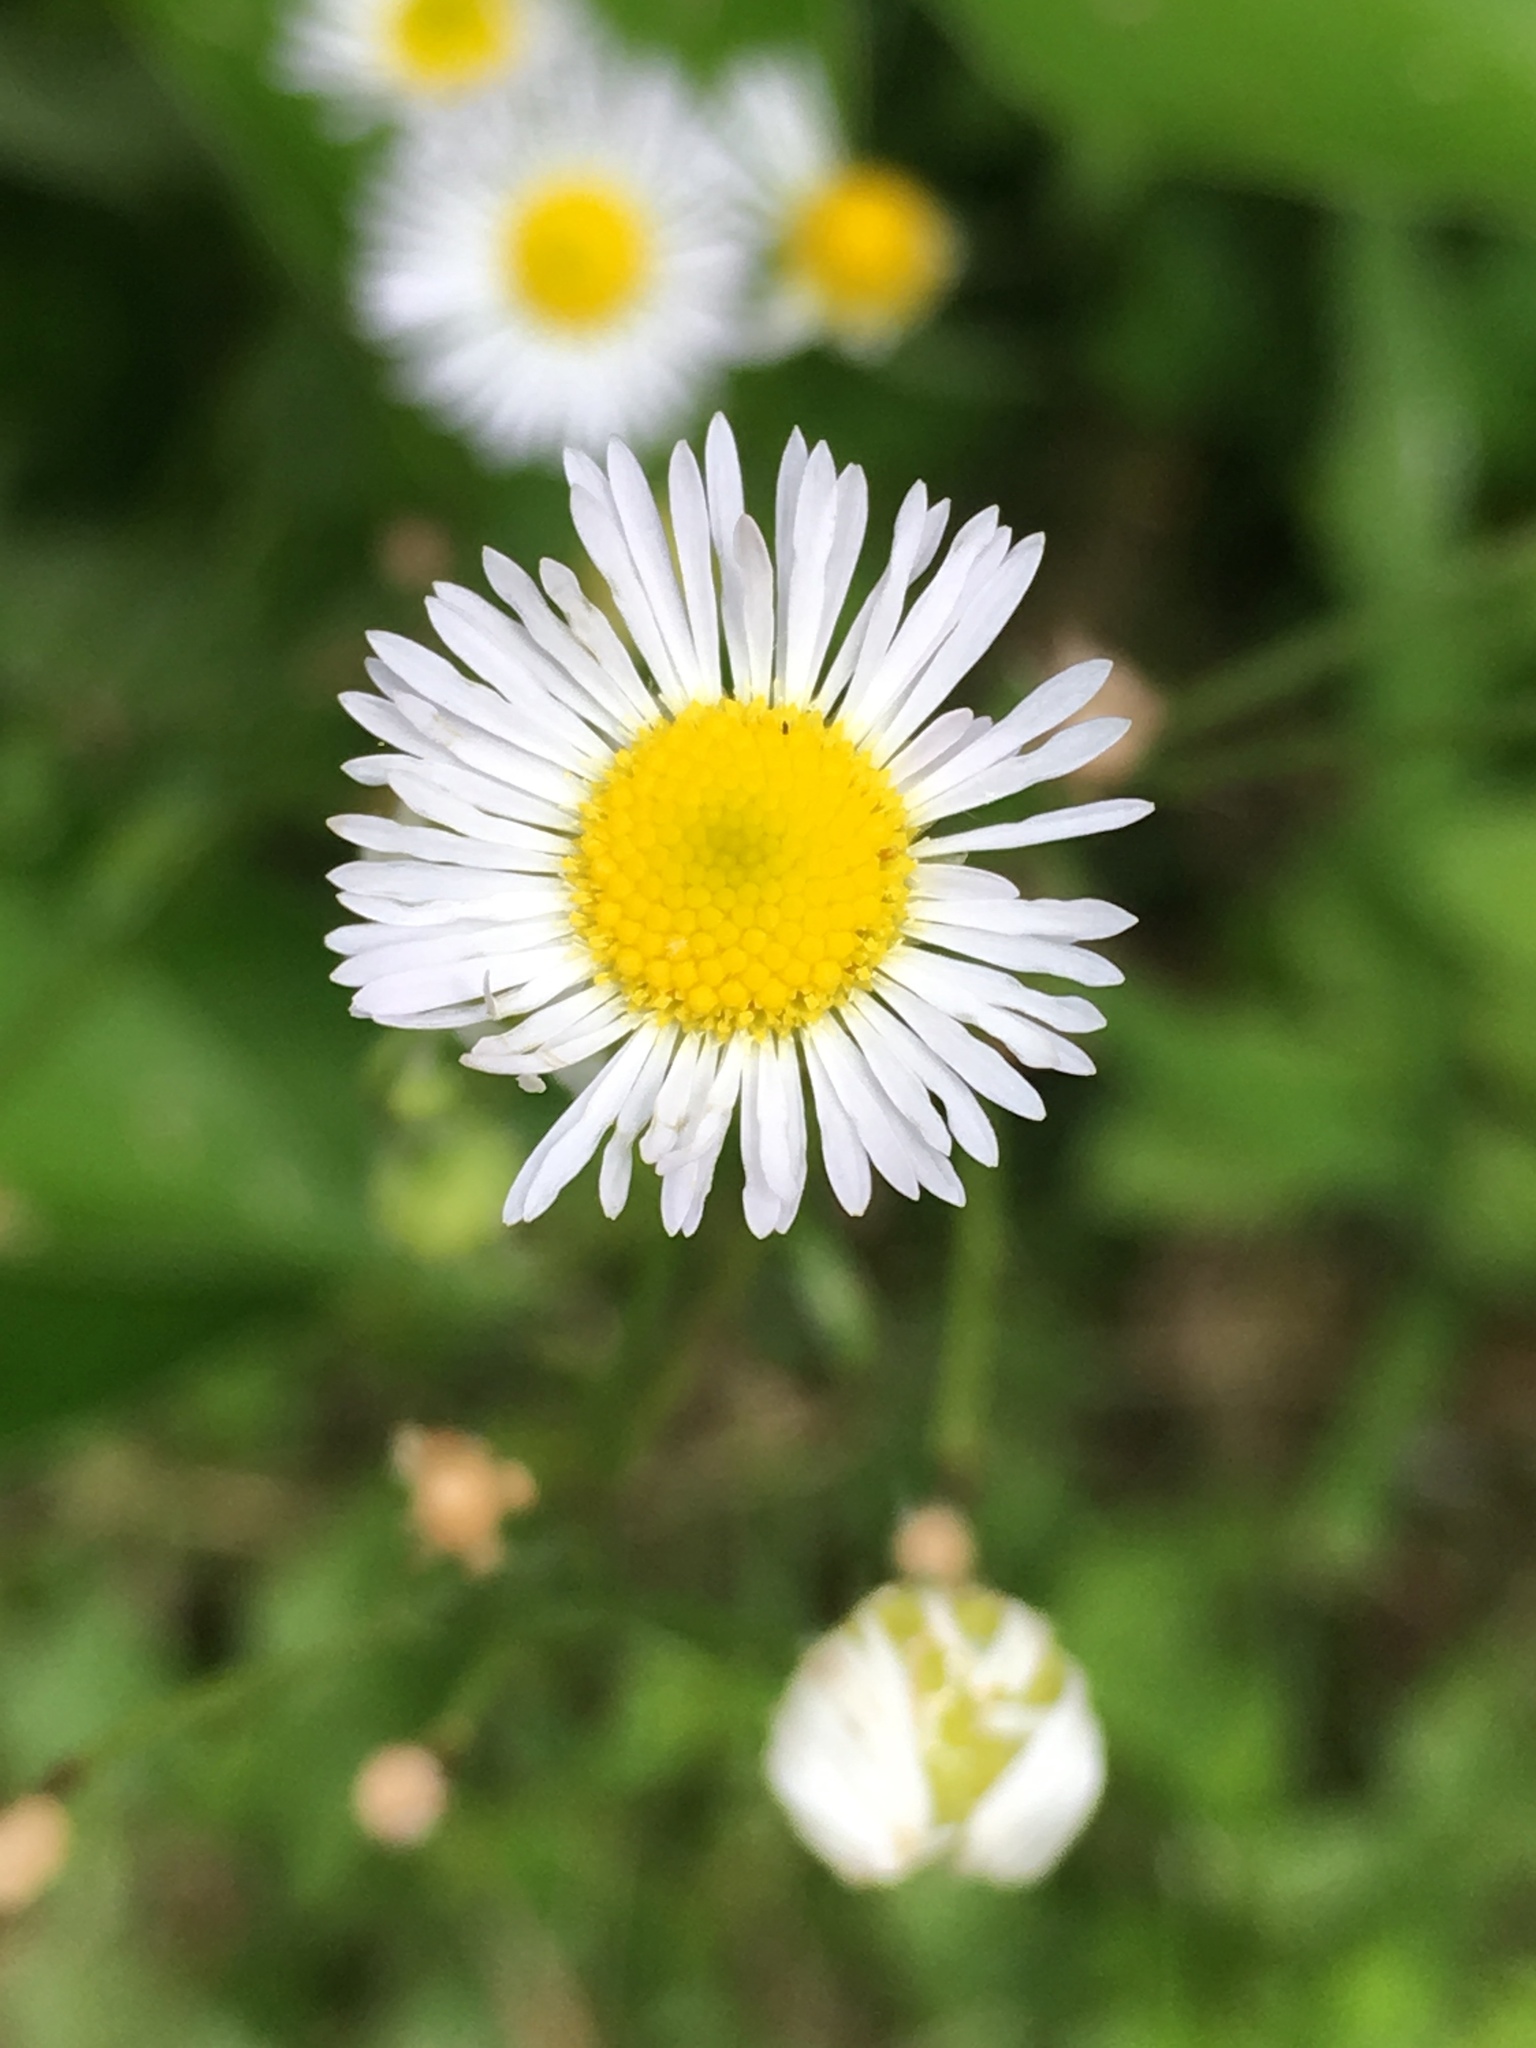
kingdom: Plantae
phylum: Tracheophyta
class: Magnoliopsida
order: Asterales
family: Asteraceae
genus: Erigeron
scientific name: Erigeron strigosus
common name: Common eastern fleabane
